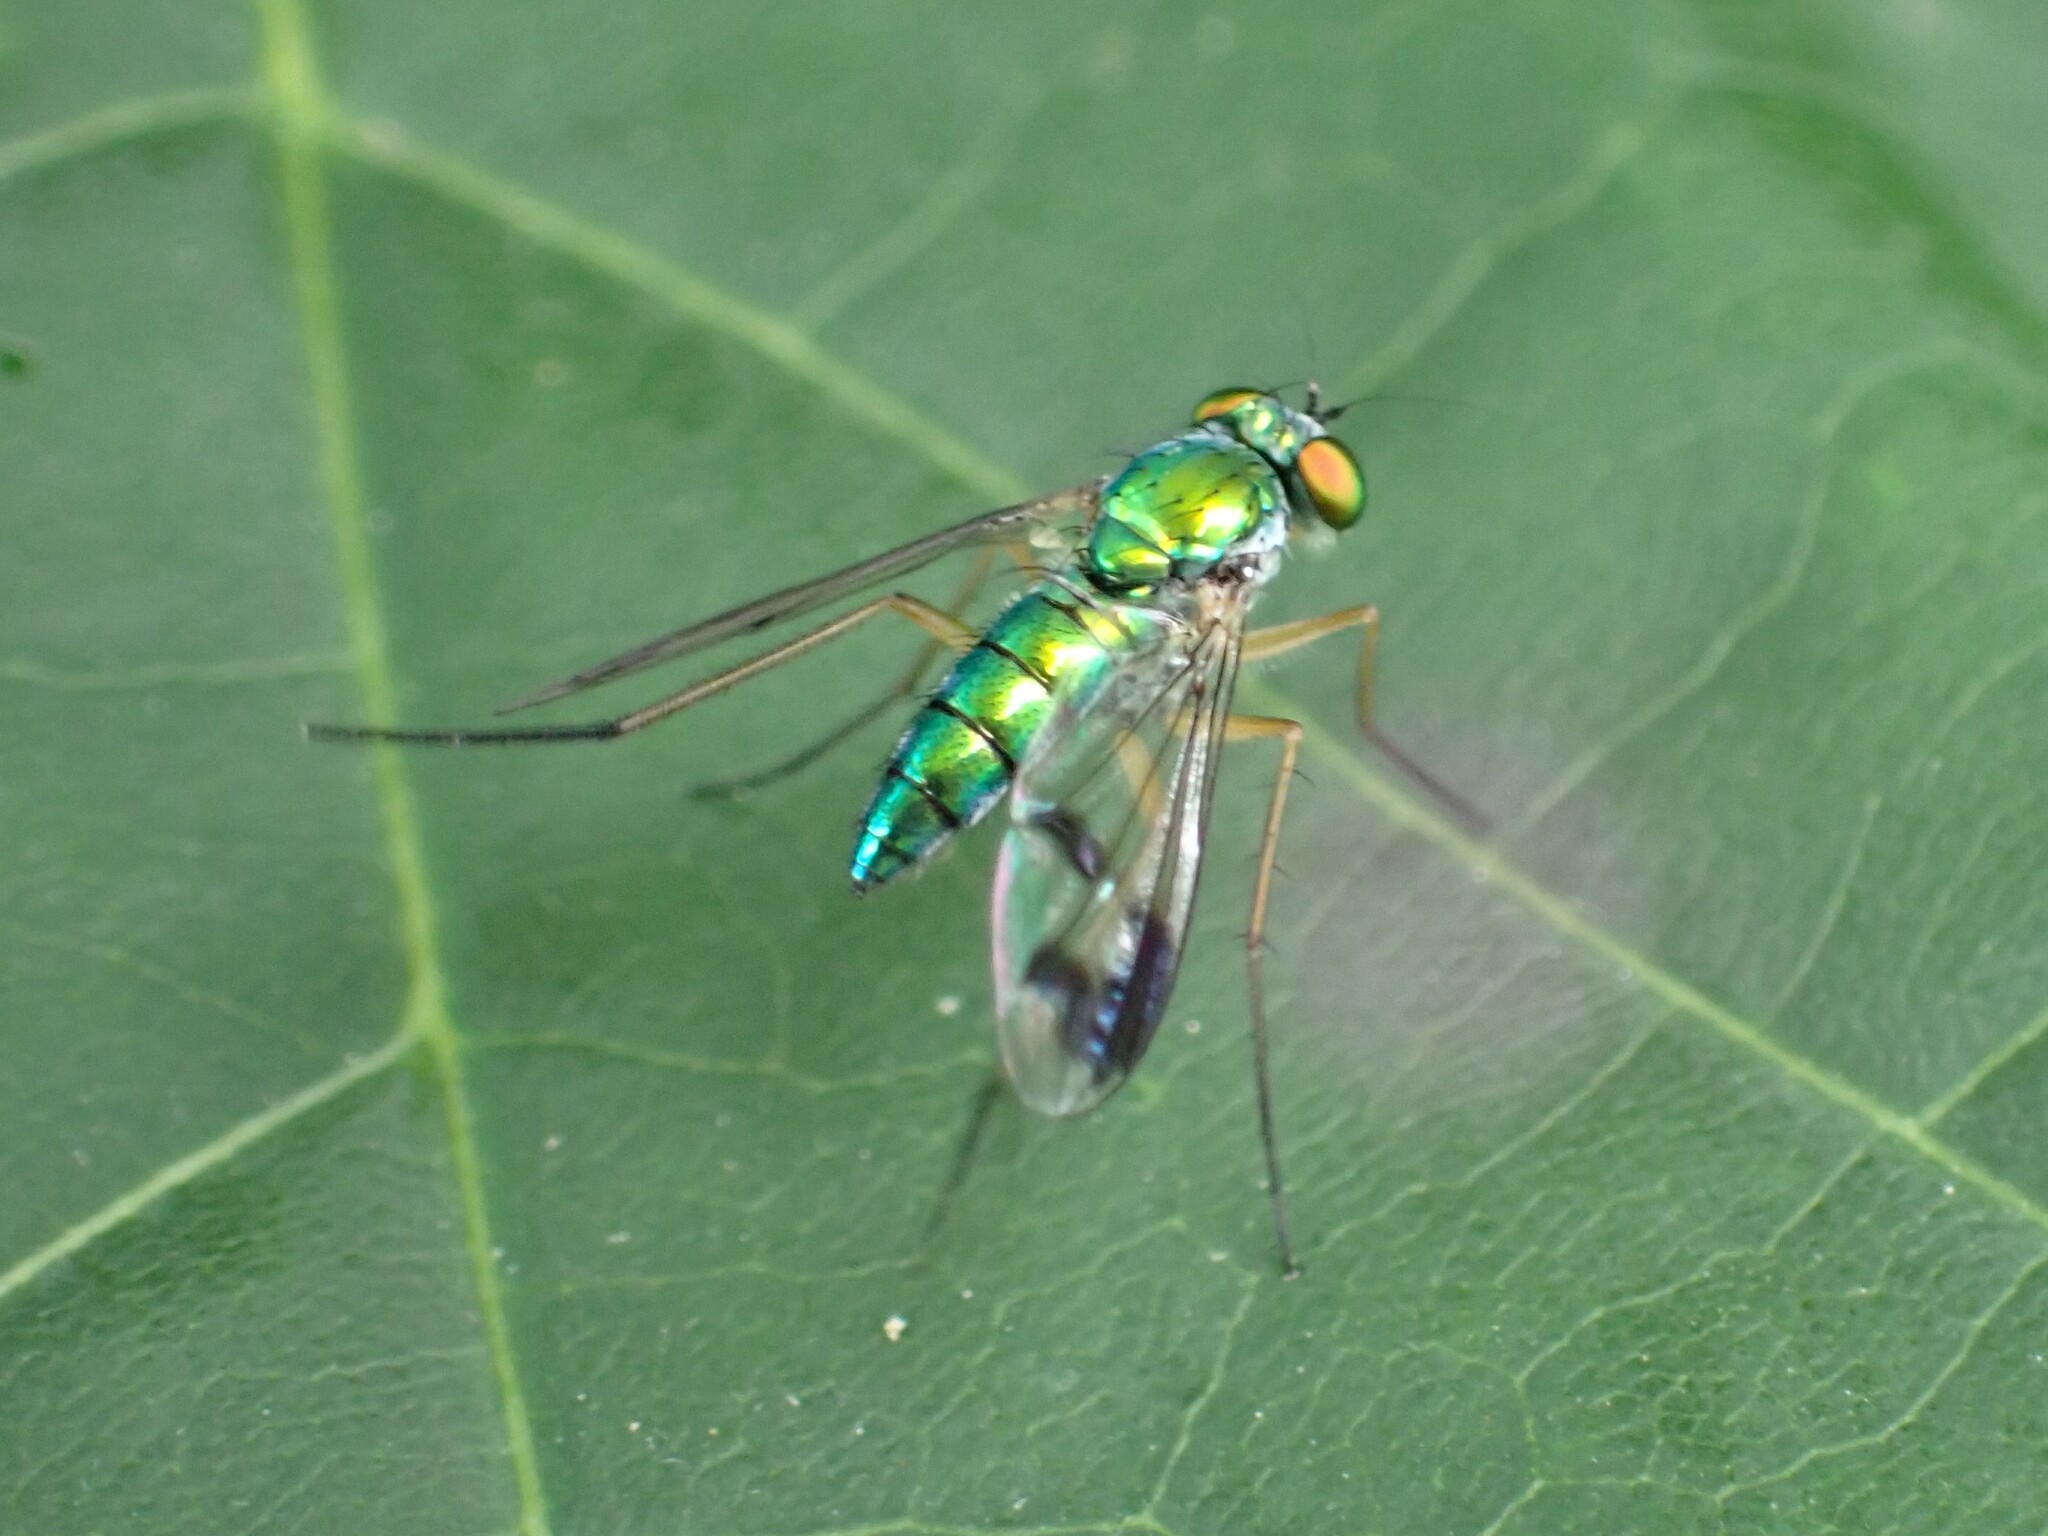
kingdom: Animalia
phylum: Arthropoda
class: Insecta
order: Diptera
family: Dolichopodidae
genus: Condylostylus
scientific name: Condylostylus
